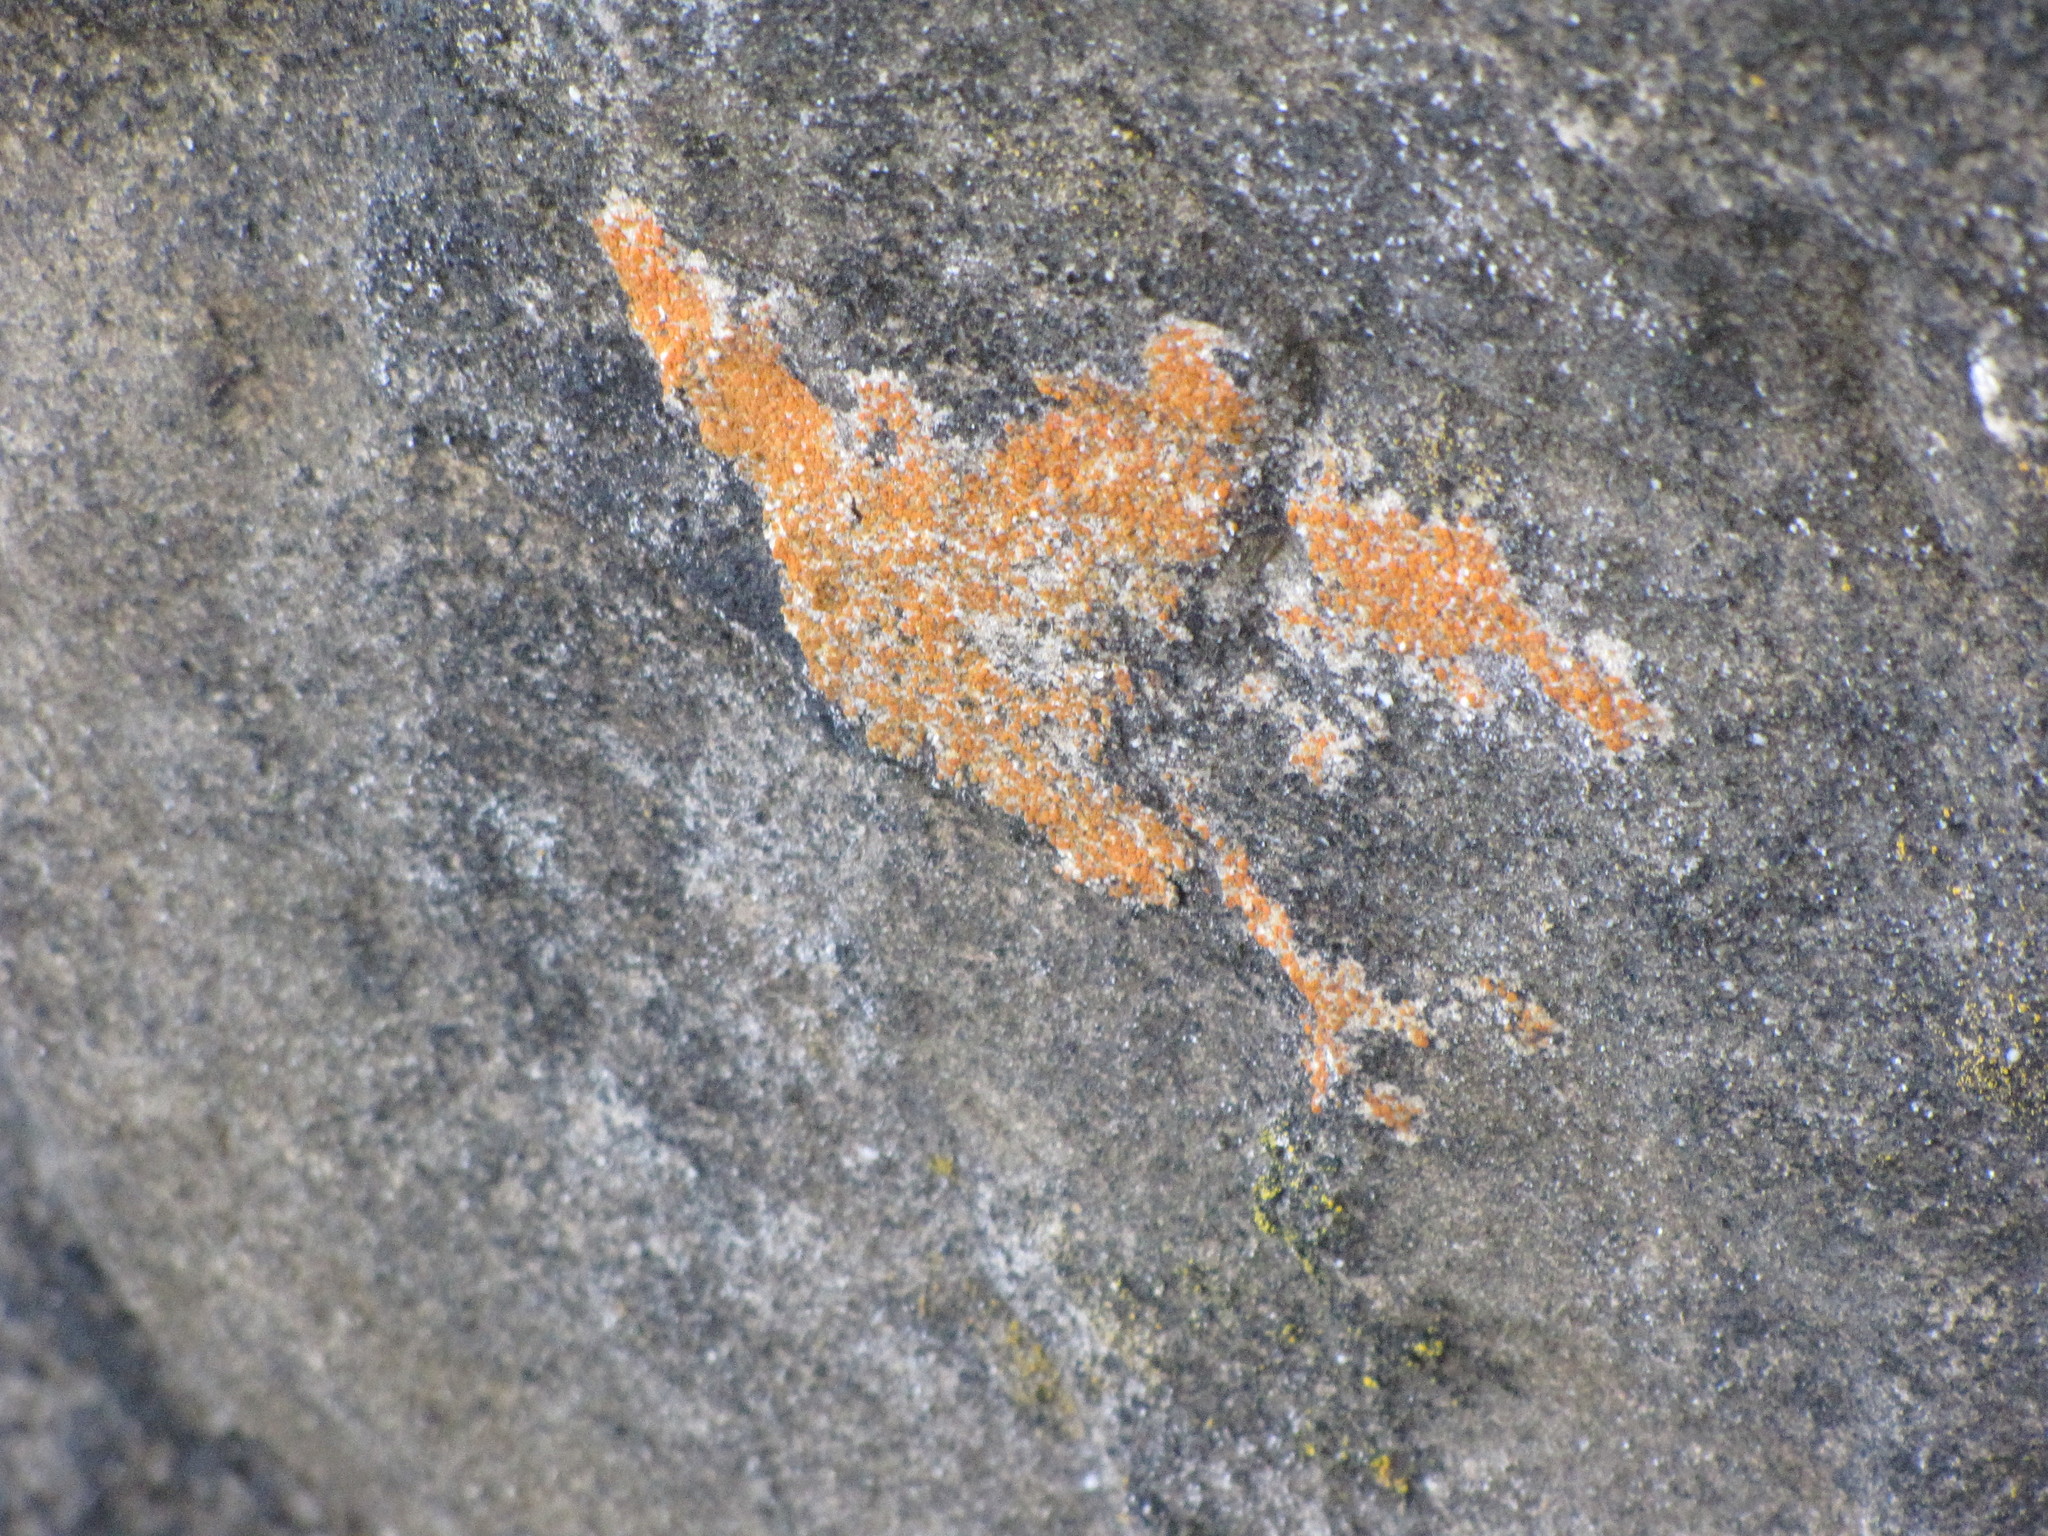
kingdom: Fungi
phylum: Ascomycota
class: Lecanoromycetes
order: Teloschistales
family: Teloschistaceae
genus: Xanthoria
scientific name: Xanthoria elegans
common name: Elegant sunburst lichen
